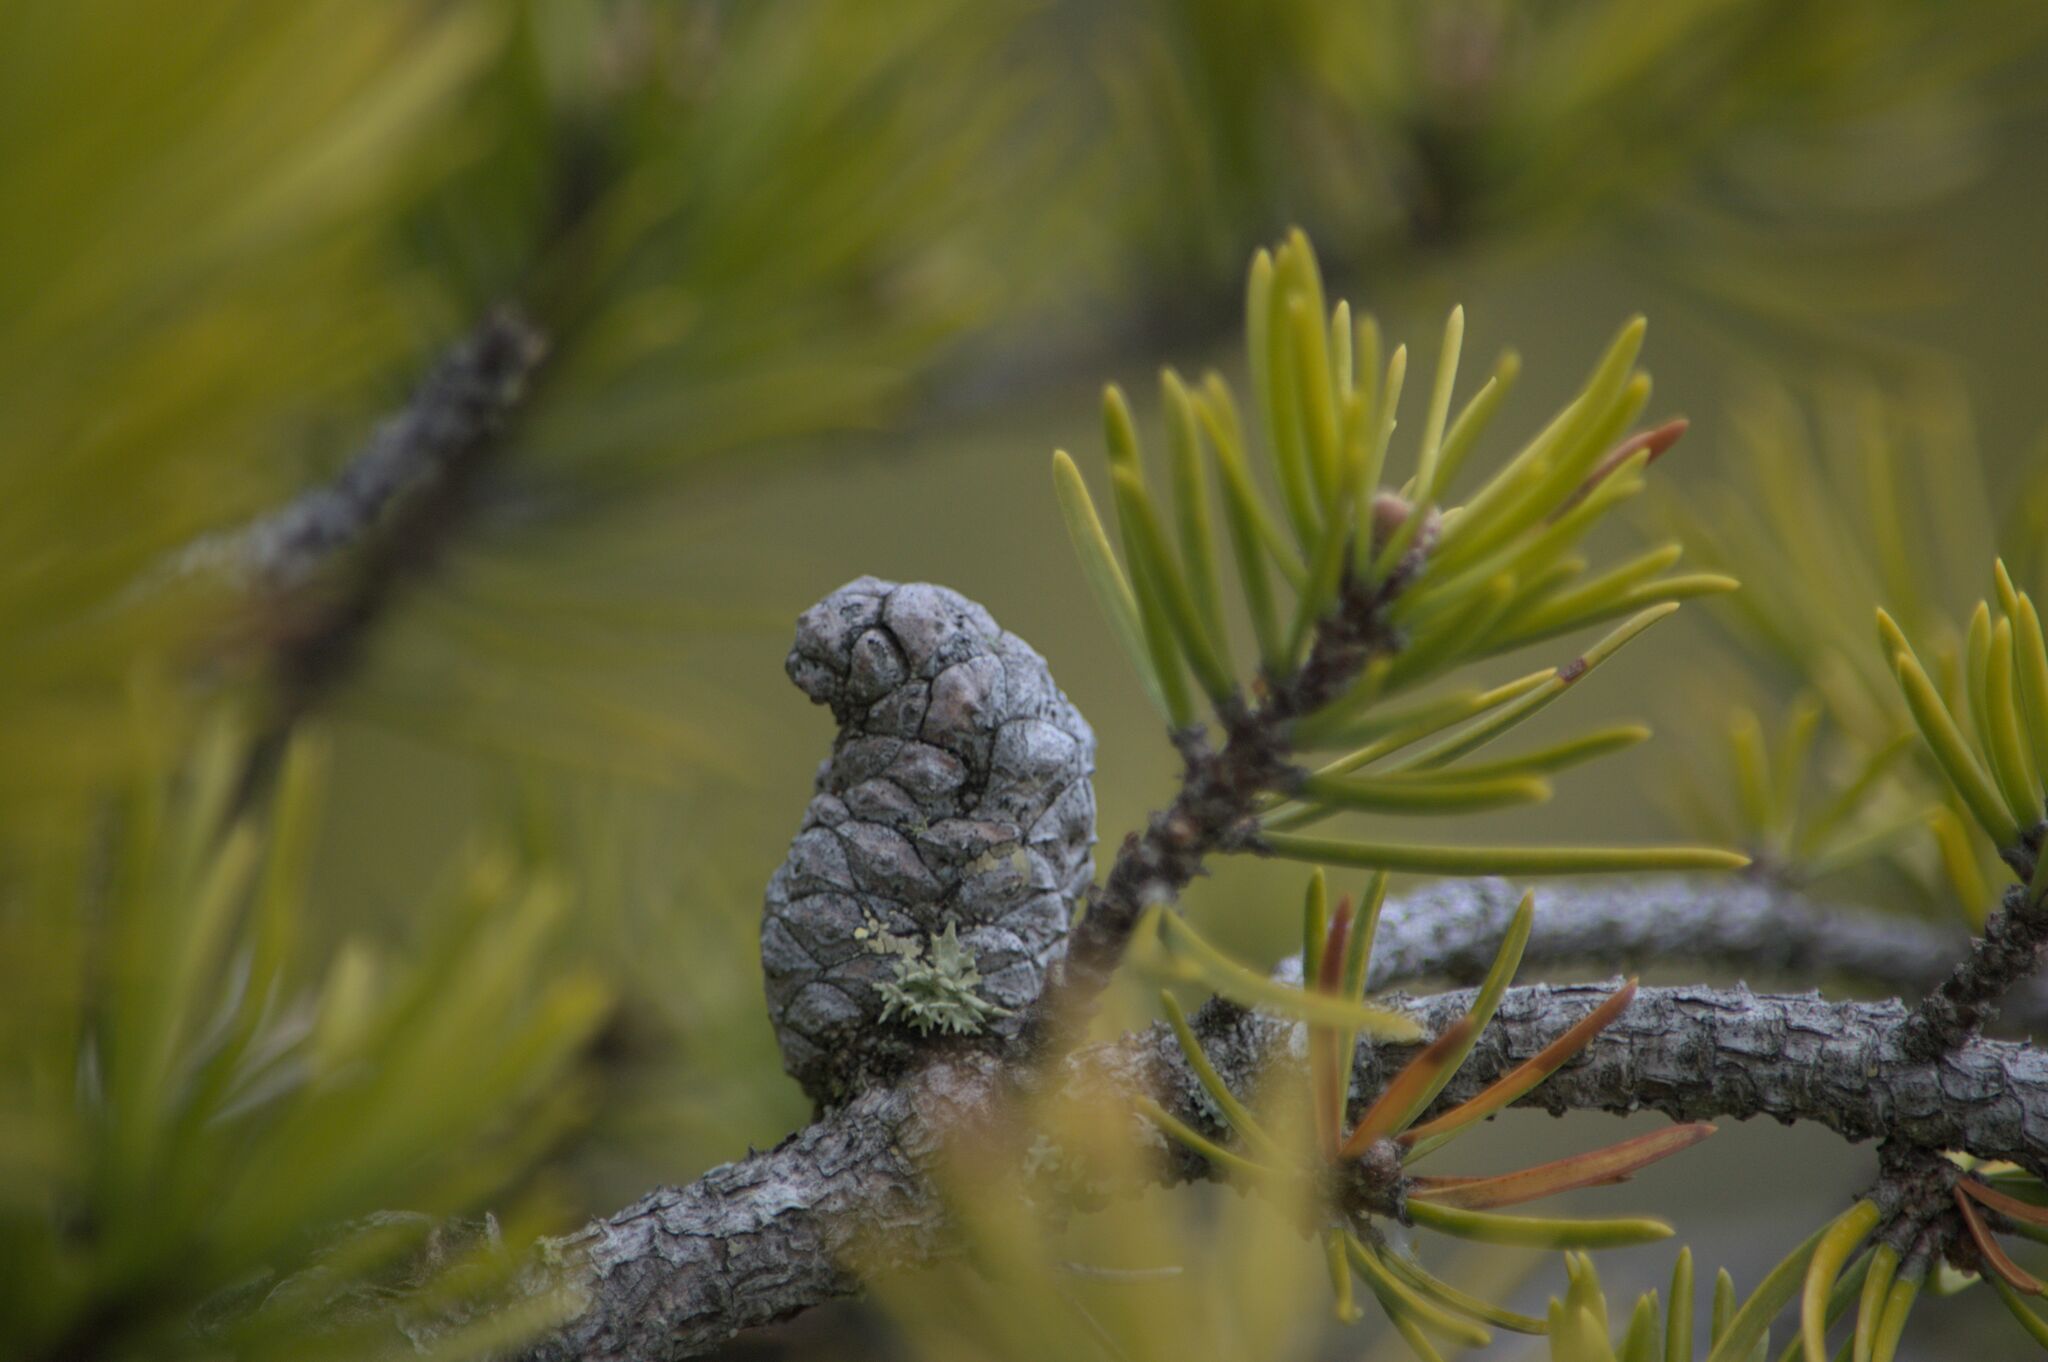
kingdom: Plantae
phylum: Tracheophyta
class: Pinopsida
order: Pinales
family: Pinaceae
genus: Pinus
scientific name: Pinus banksiana
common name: Jack pine
